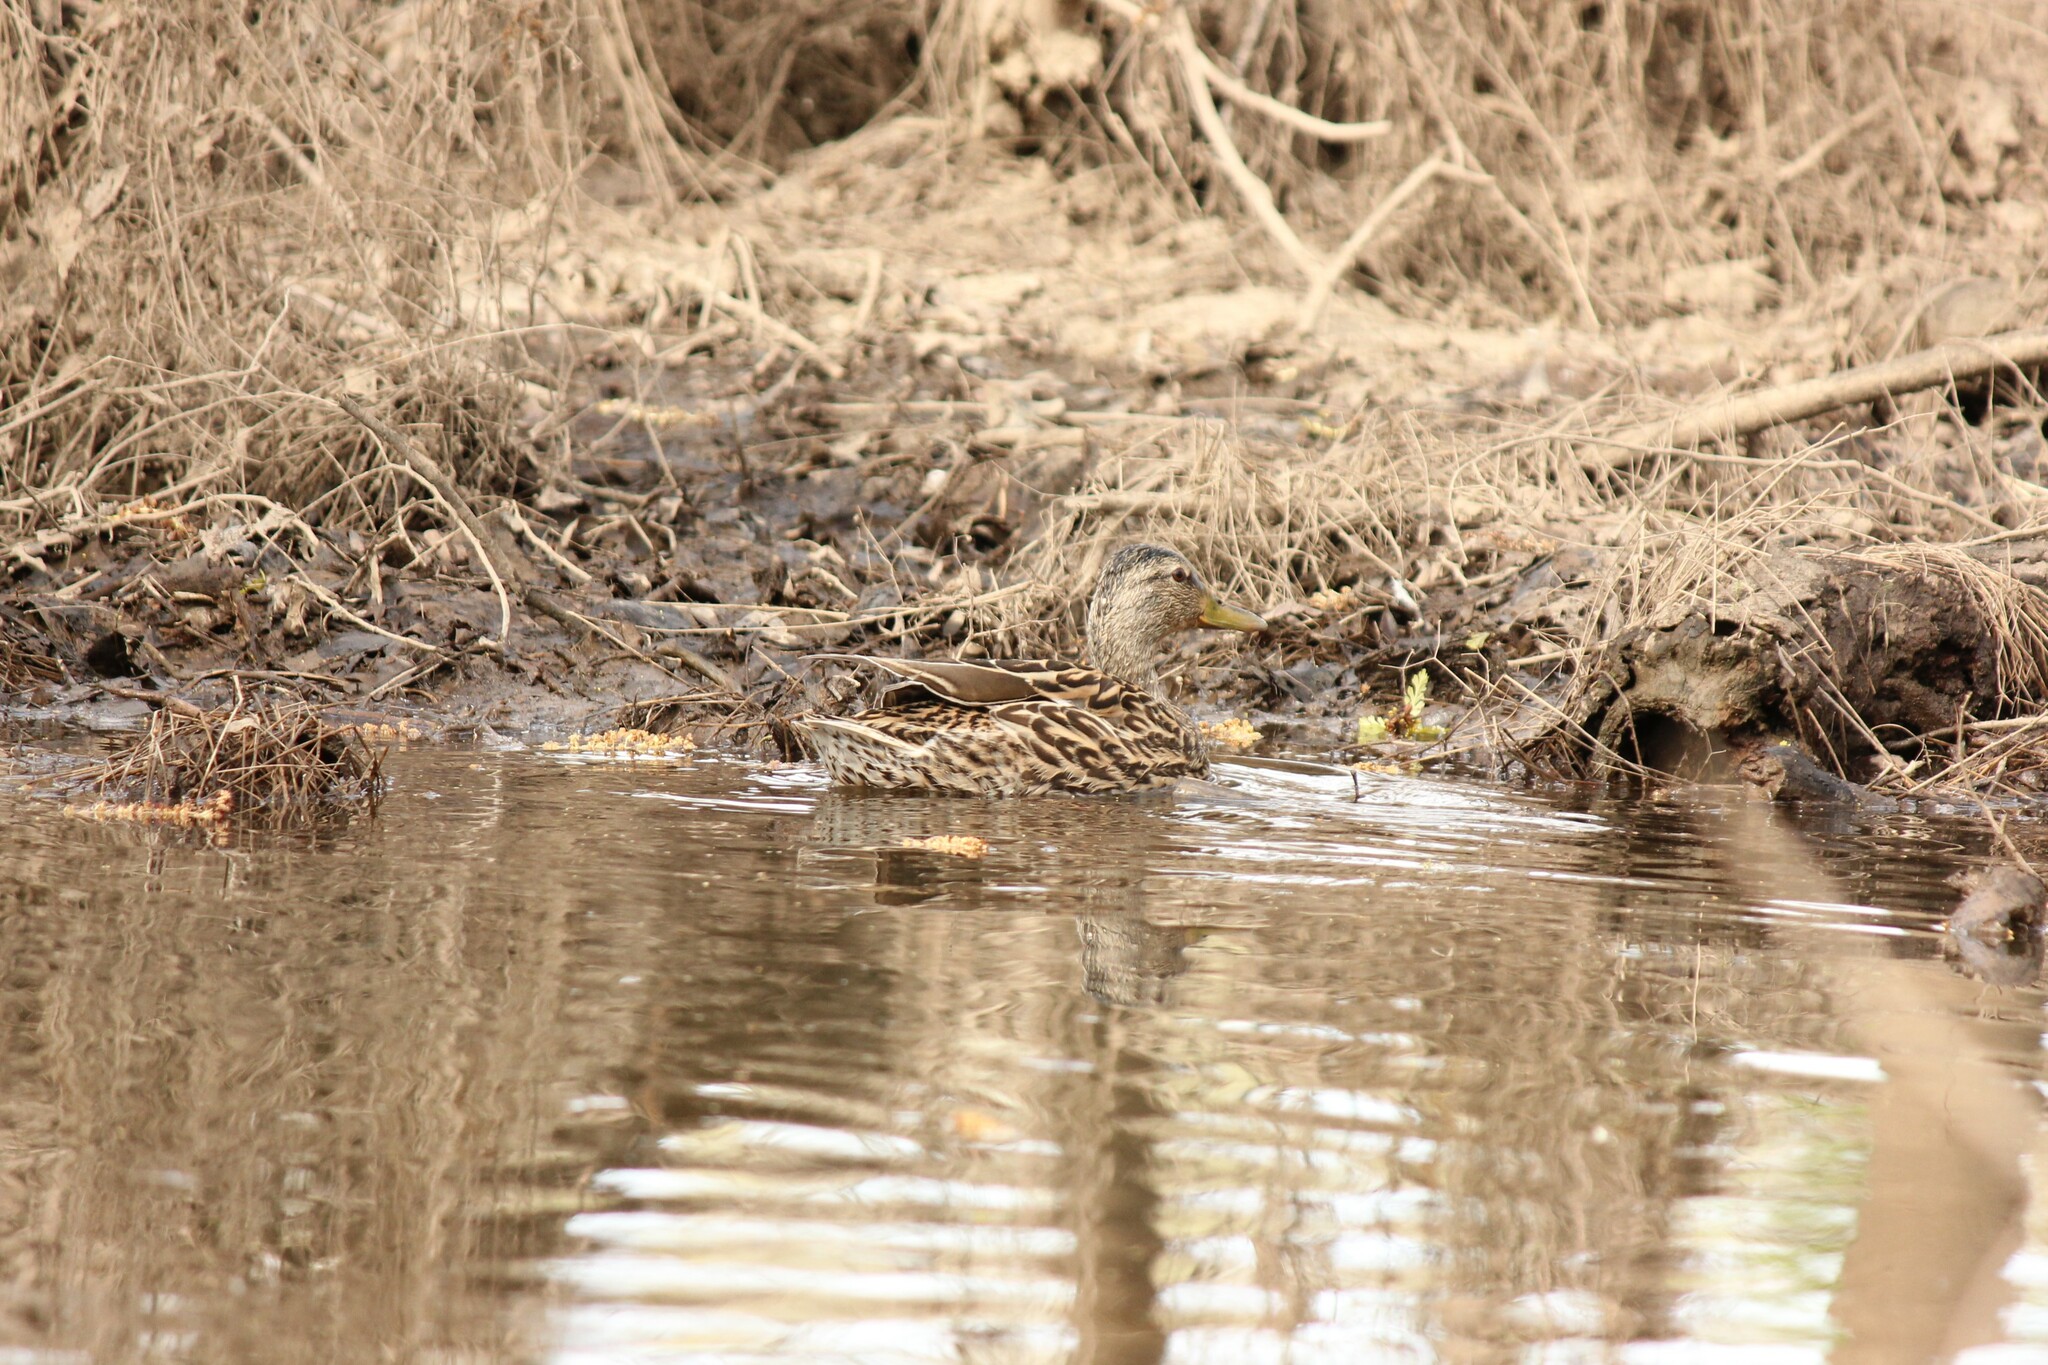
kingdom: Animalia
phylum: Chordata
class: Aves
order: Anseriformes
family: Anatidae
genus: Anas
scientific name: Anas platyrhynchos
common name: Mallard
